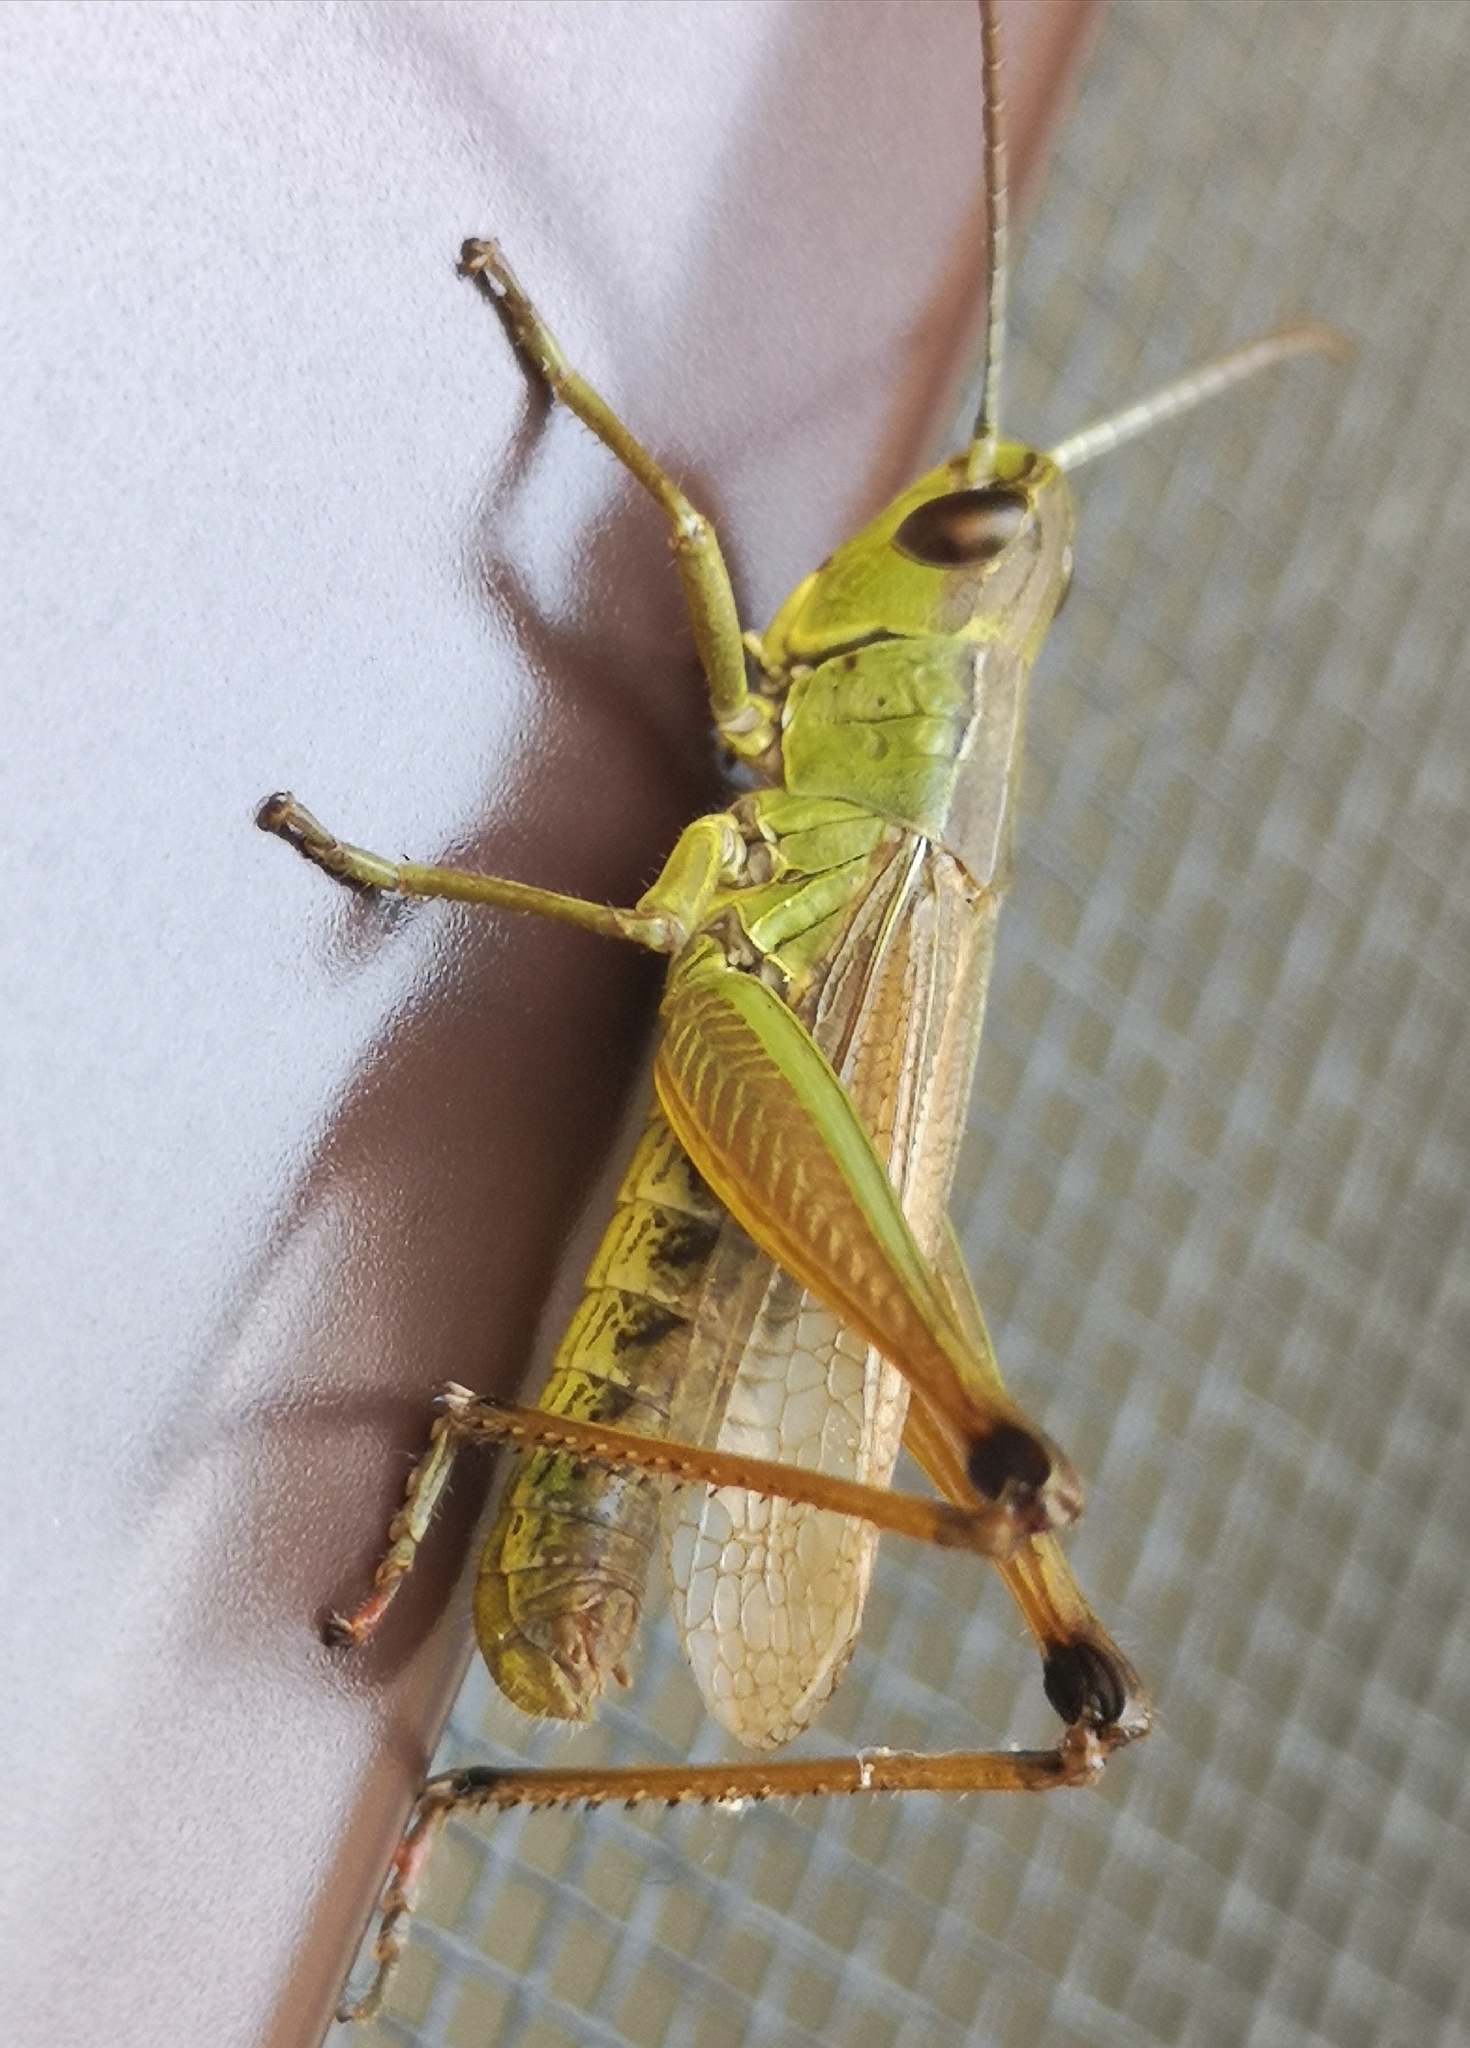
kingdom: Animalia
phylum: Arthropoda
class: Insecta
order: Orthoptera
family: Acrididae
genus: Pseudochorthippus
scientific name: Pseudochorthippus parallelus
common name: Meadow grasshopper
